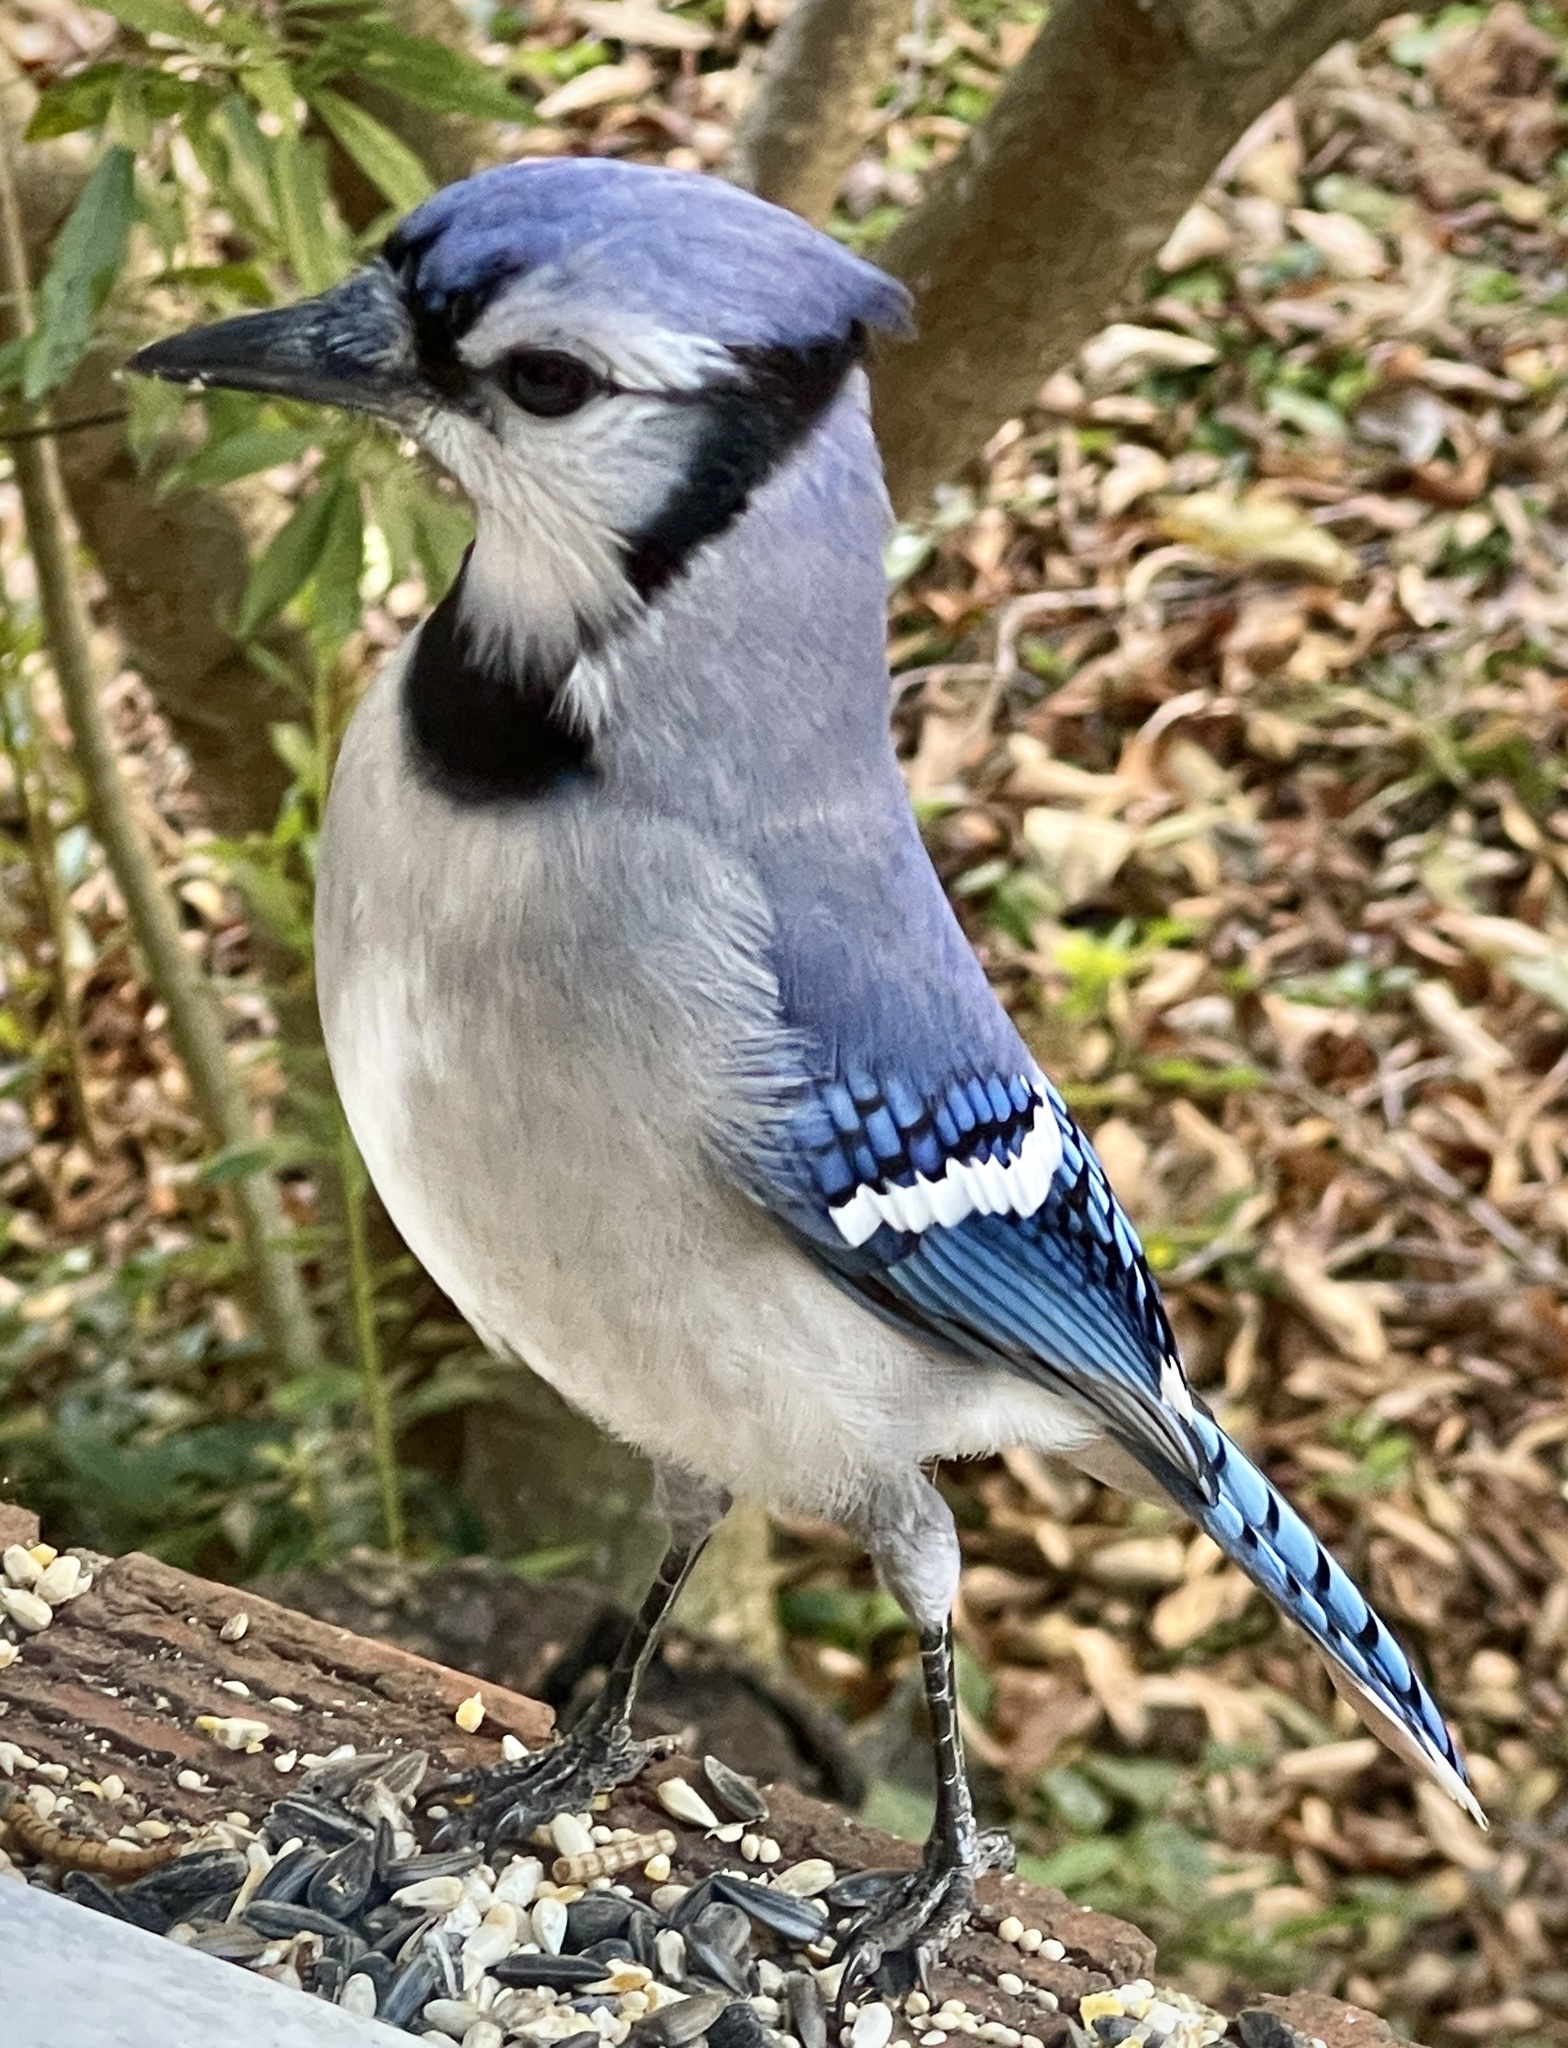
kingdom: Animalia
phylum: Chordata
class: Aves
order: Passeriformes
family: Corvidae
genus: Cyanocitta
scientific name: Cyanocitta cristata
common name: Blue jay
